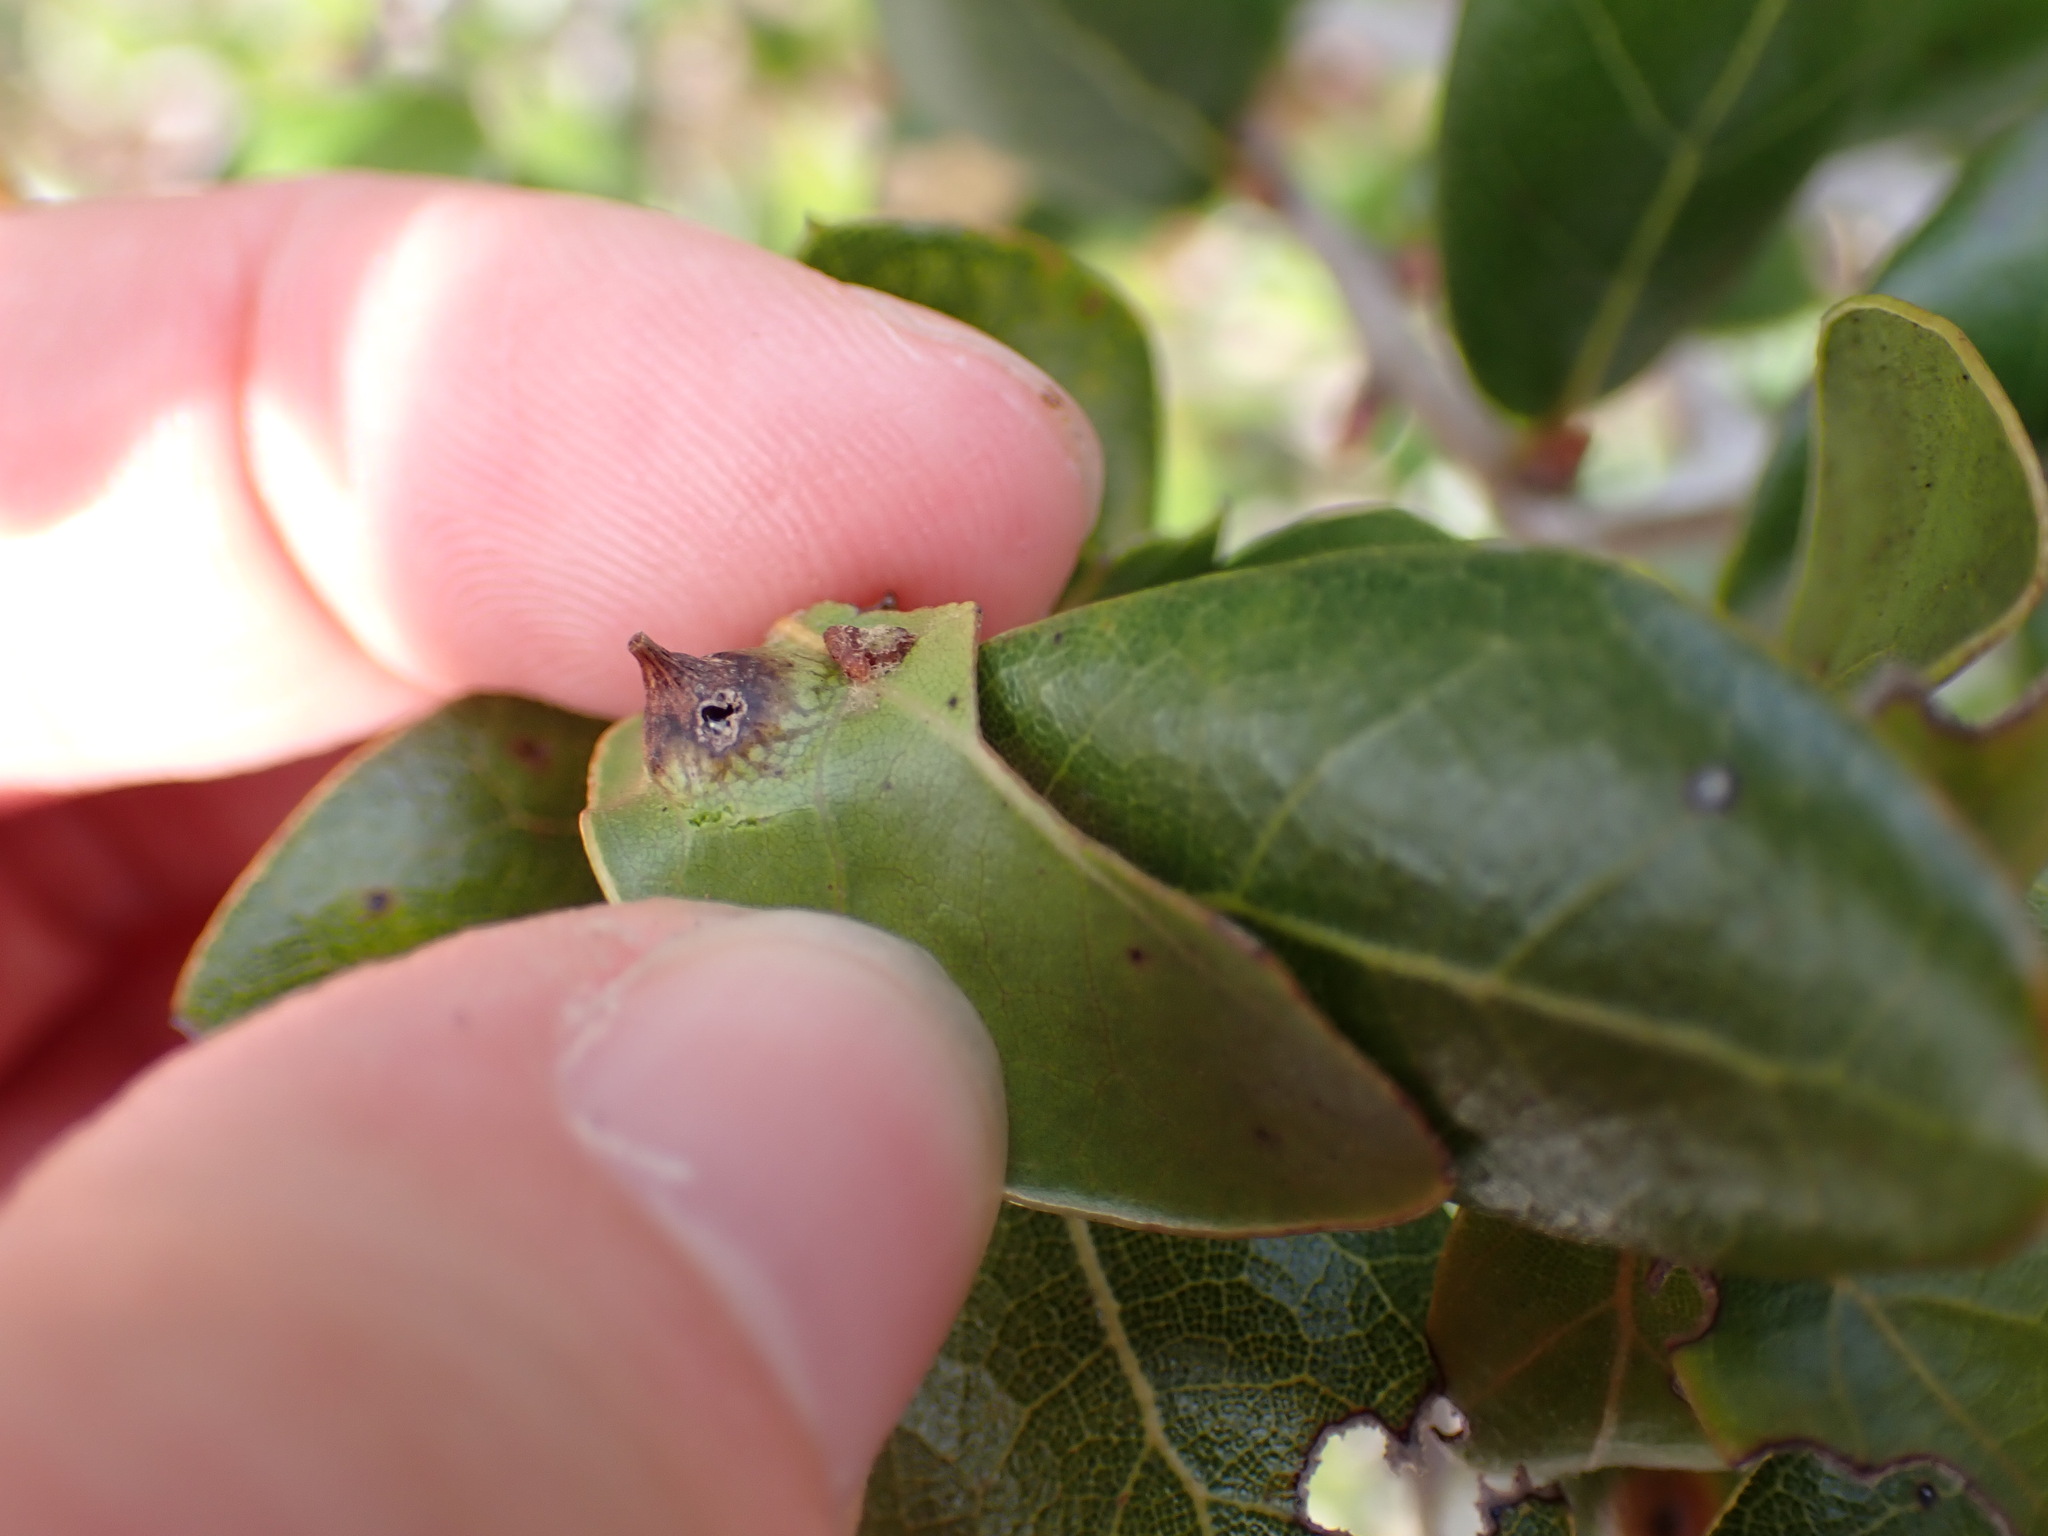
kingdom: Animalia
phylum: Arthropoda
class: Insecta
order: Hymenoptera
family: Cynipidae
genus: Dryocosmus
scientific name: Dryocosmus archboldi
